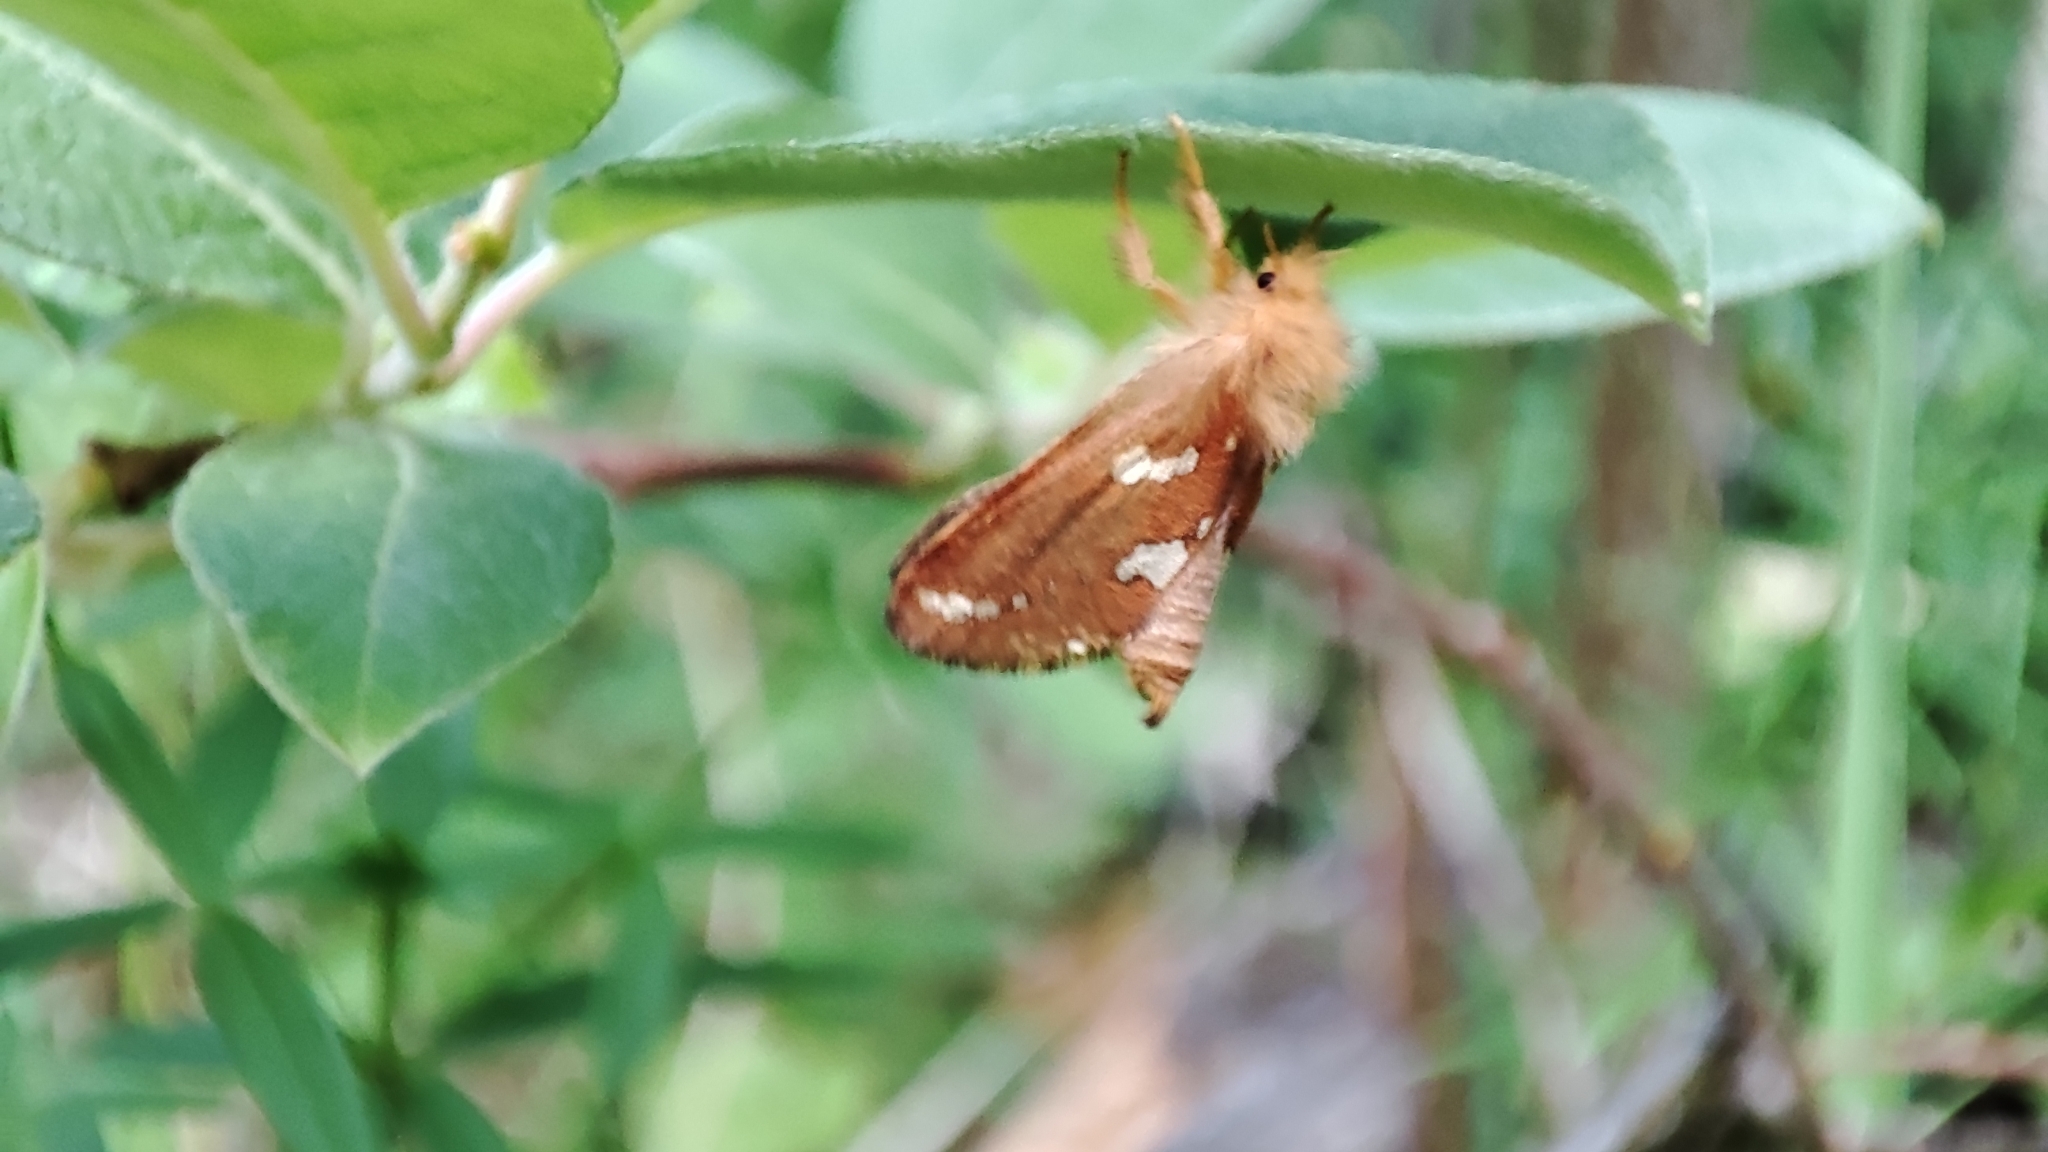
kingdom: Animalia
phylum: Arthropoda
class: Insecta
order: Lepidoptera
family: Hepialidae
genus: Phymatopus
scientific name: Phymatopus hecta
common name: Gold swift
